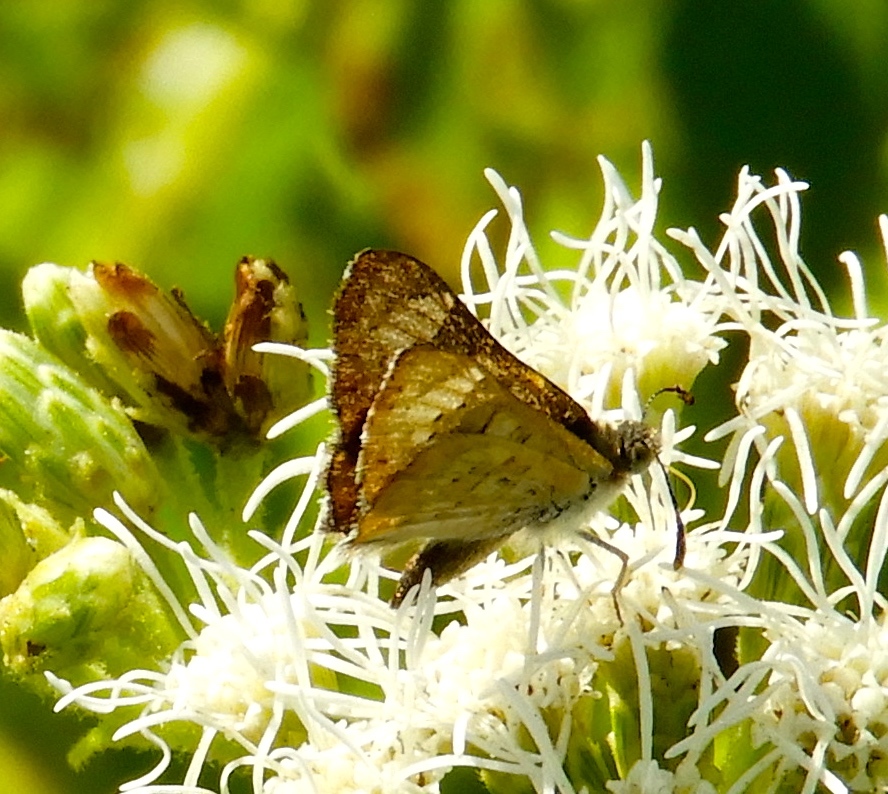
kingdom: Animalia
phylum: Arthropoda
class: Insecta
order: Lepidoptera
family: Riodinidae
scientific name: Riodinidae
